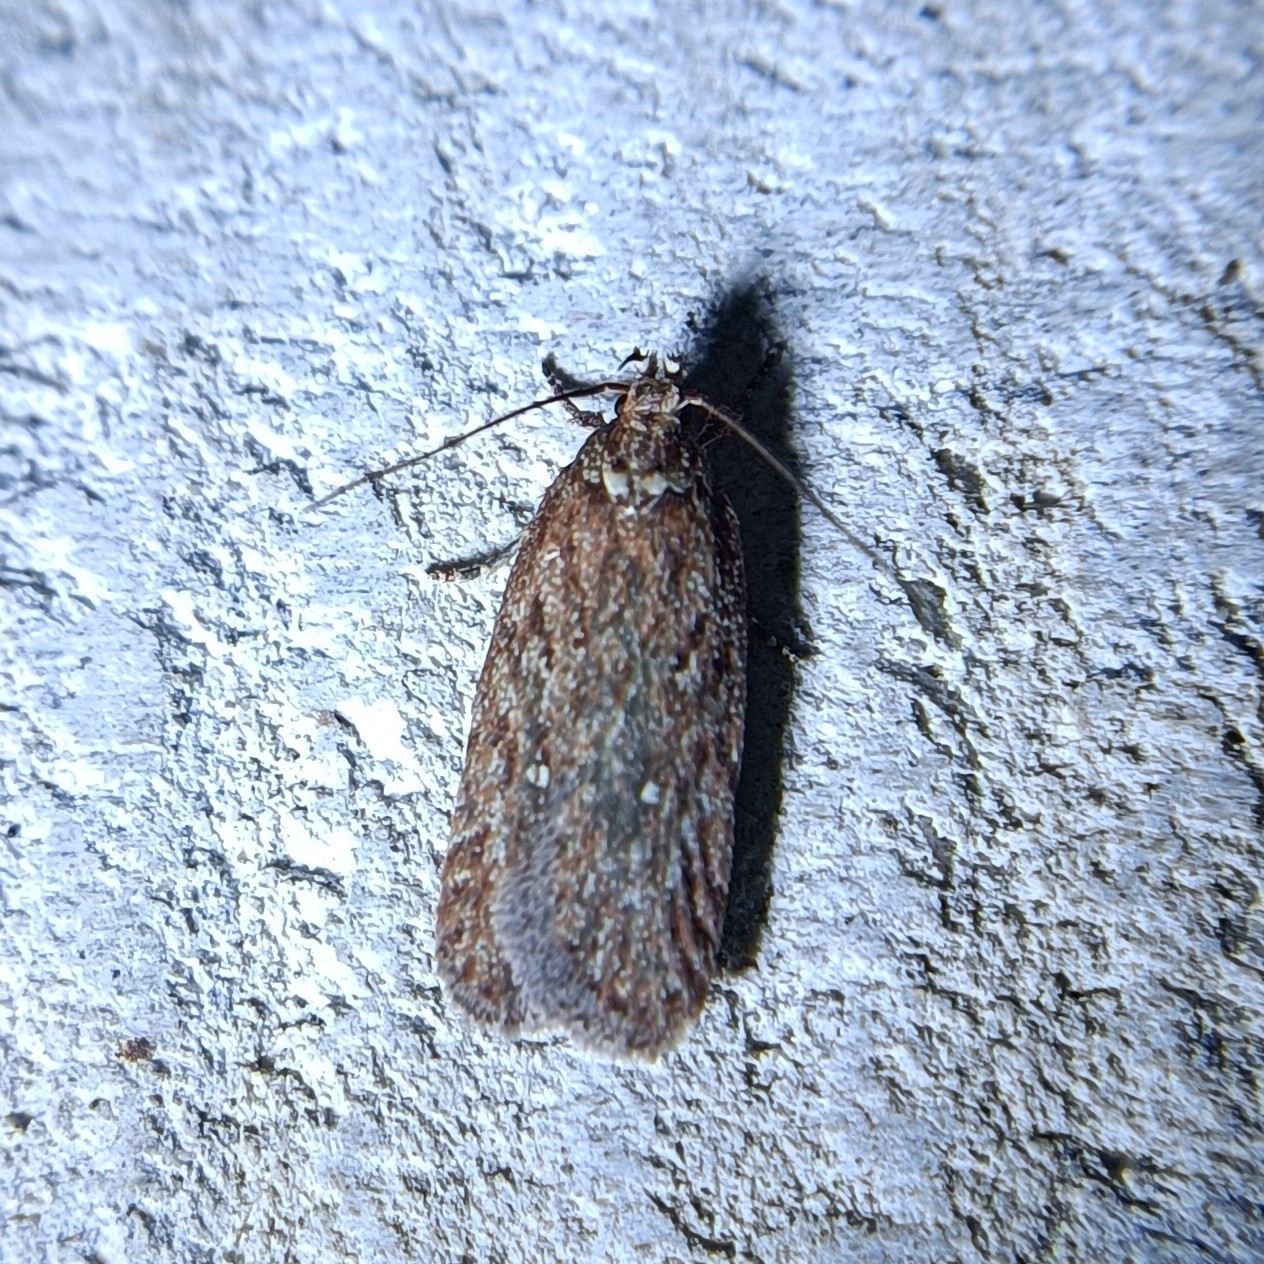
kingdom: Animalia
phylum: Arthropoda
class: Insecta
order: Lepidoptera
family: Depressariidae
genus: Depressaria
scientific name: Depressaria olerella
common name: Yarrow flat-body
